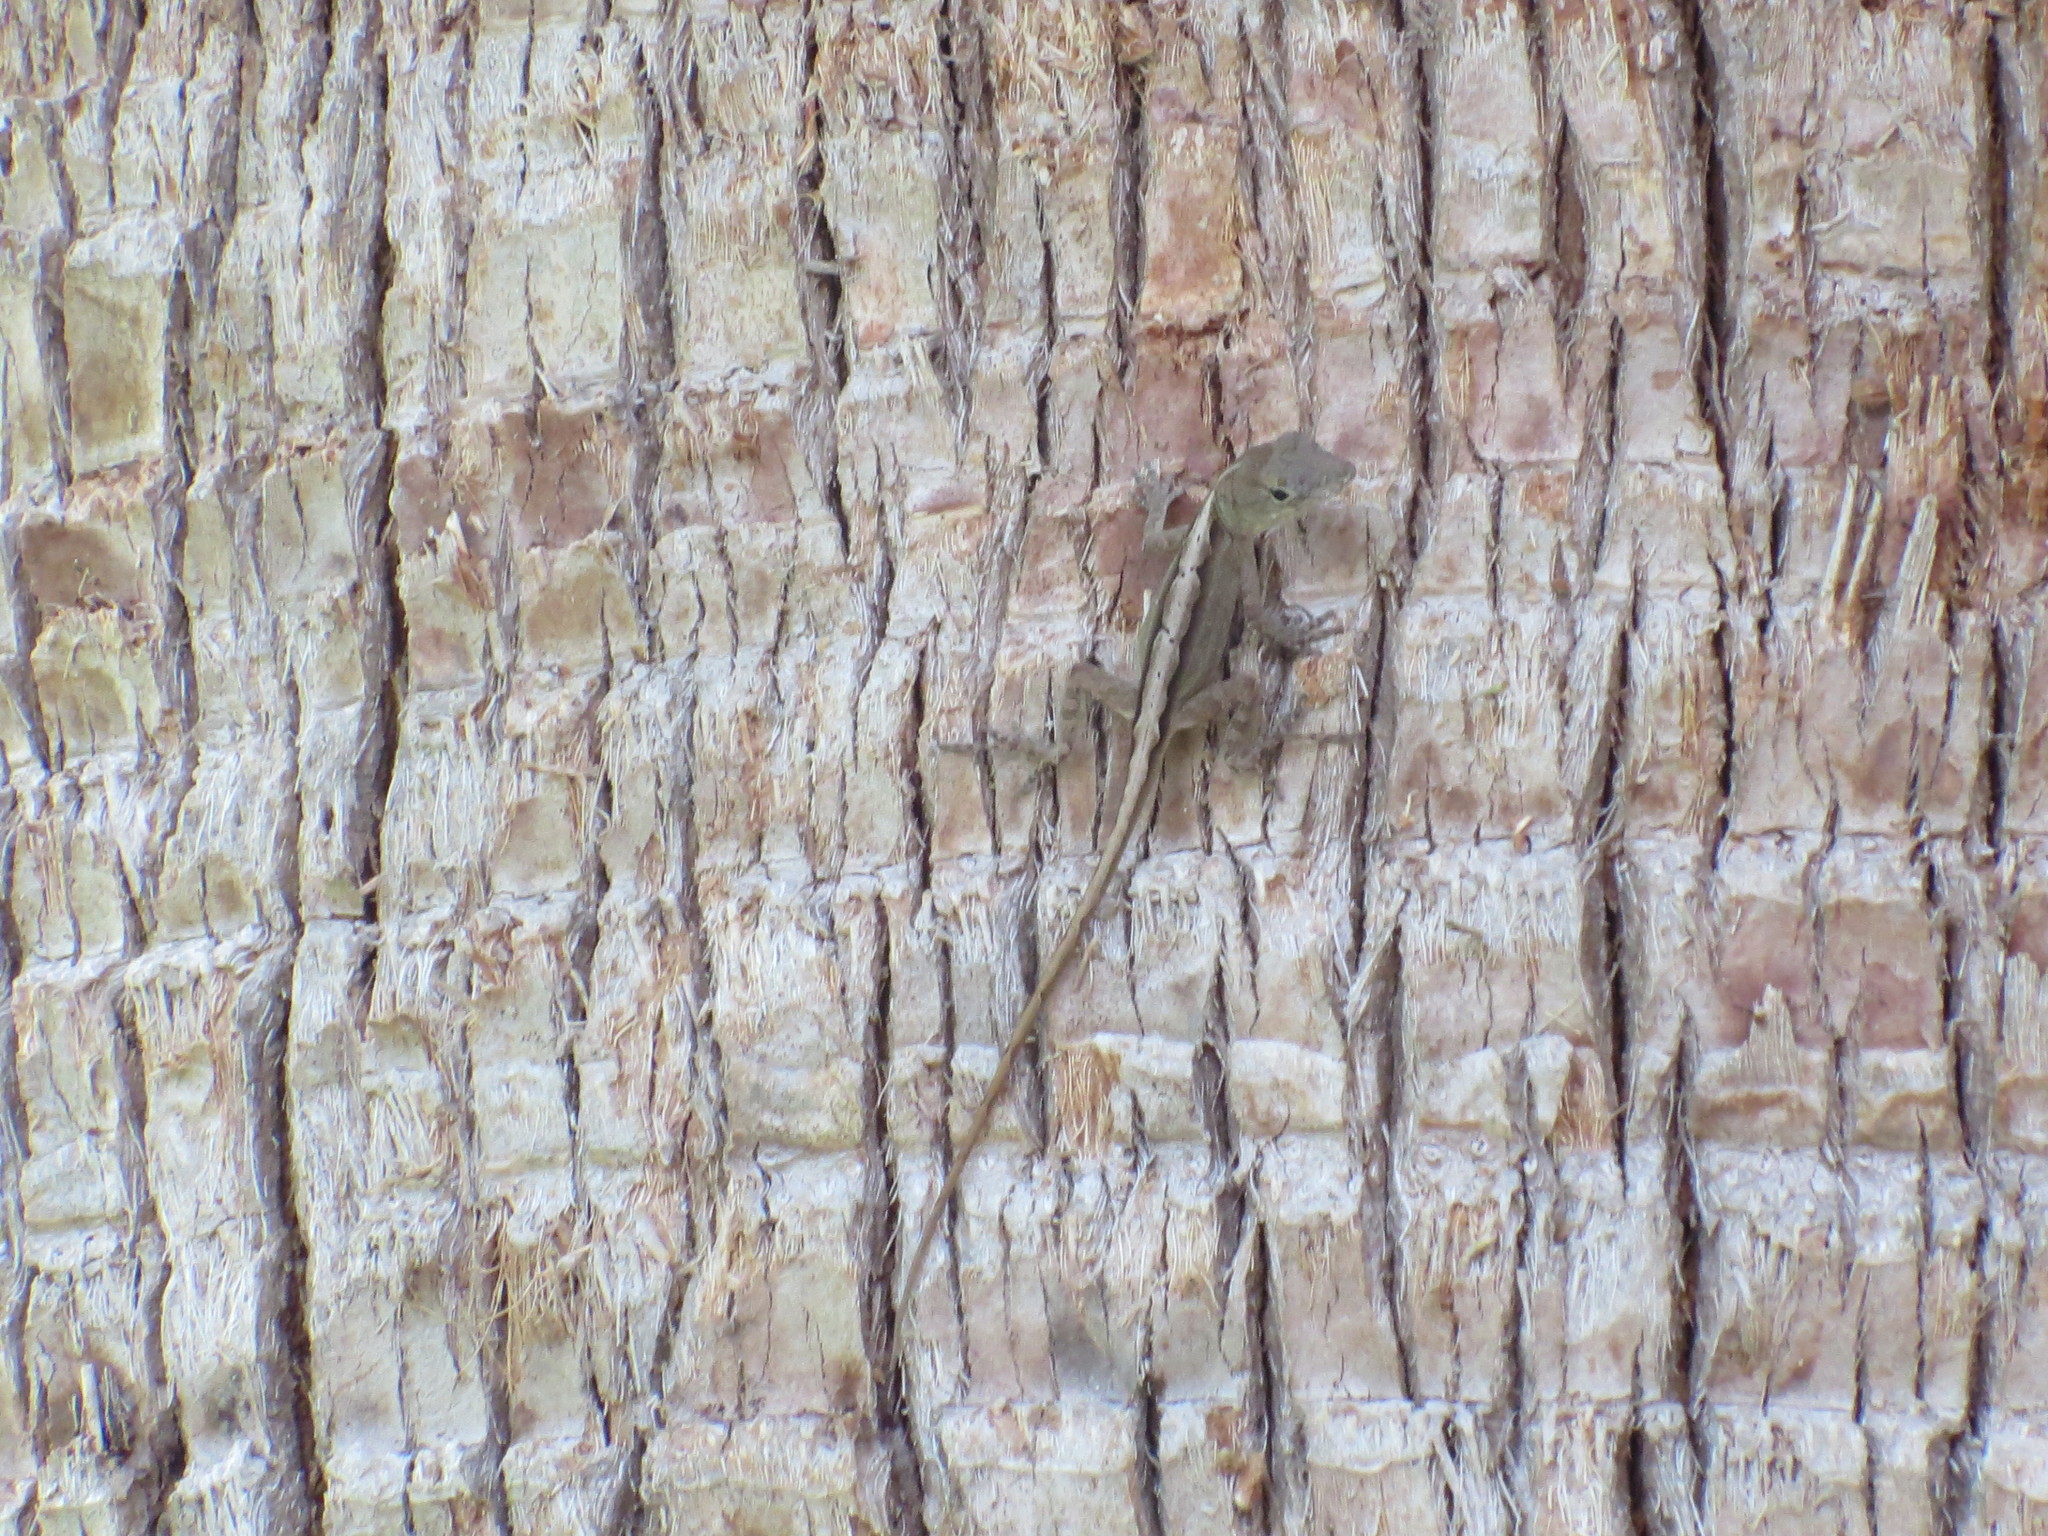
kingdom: Animalia
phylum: Chordata
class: Squamata
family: Dactyloidae
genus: Anolis
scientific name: Anolis sagrei
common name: Brown anole
